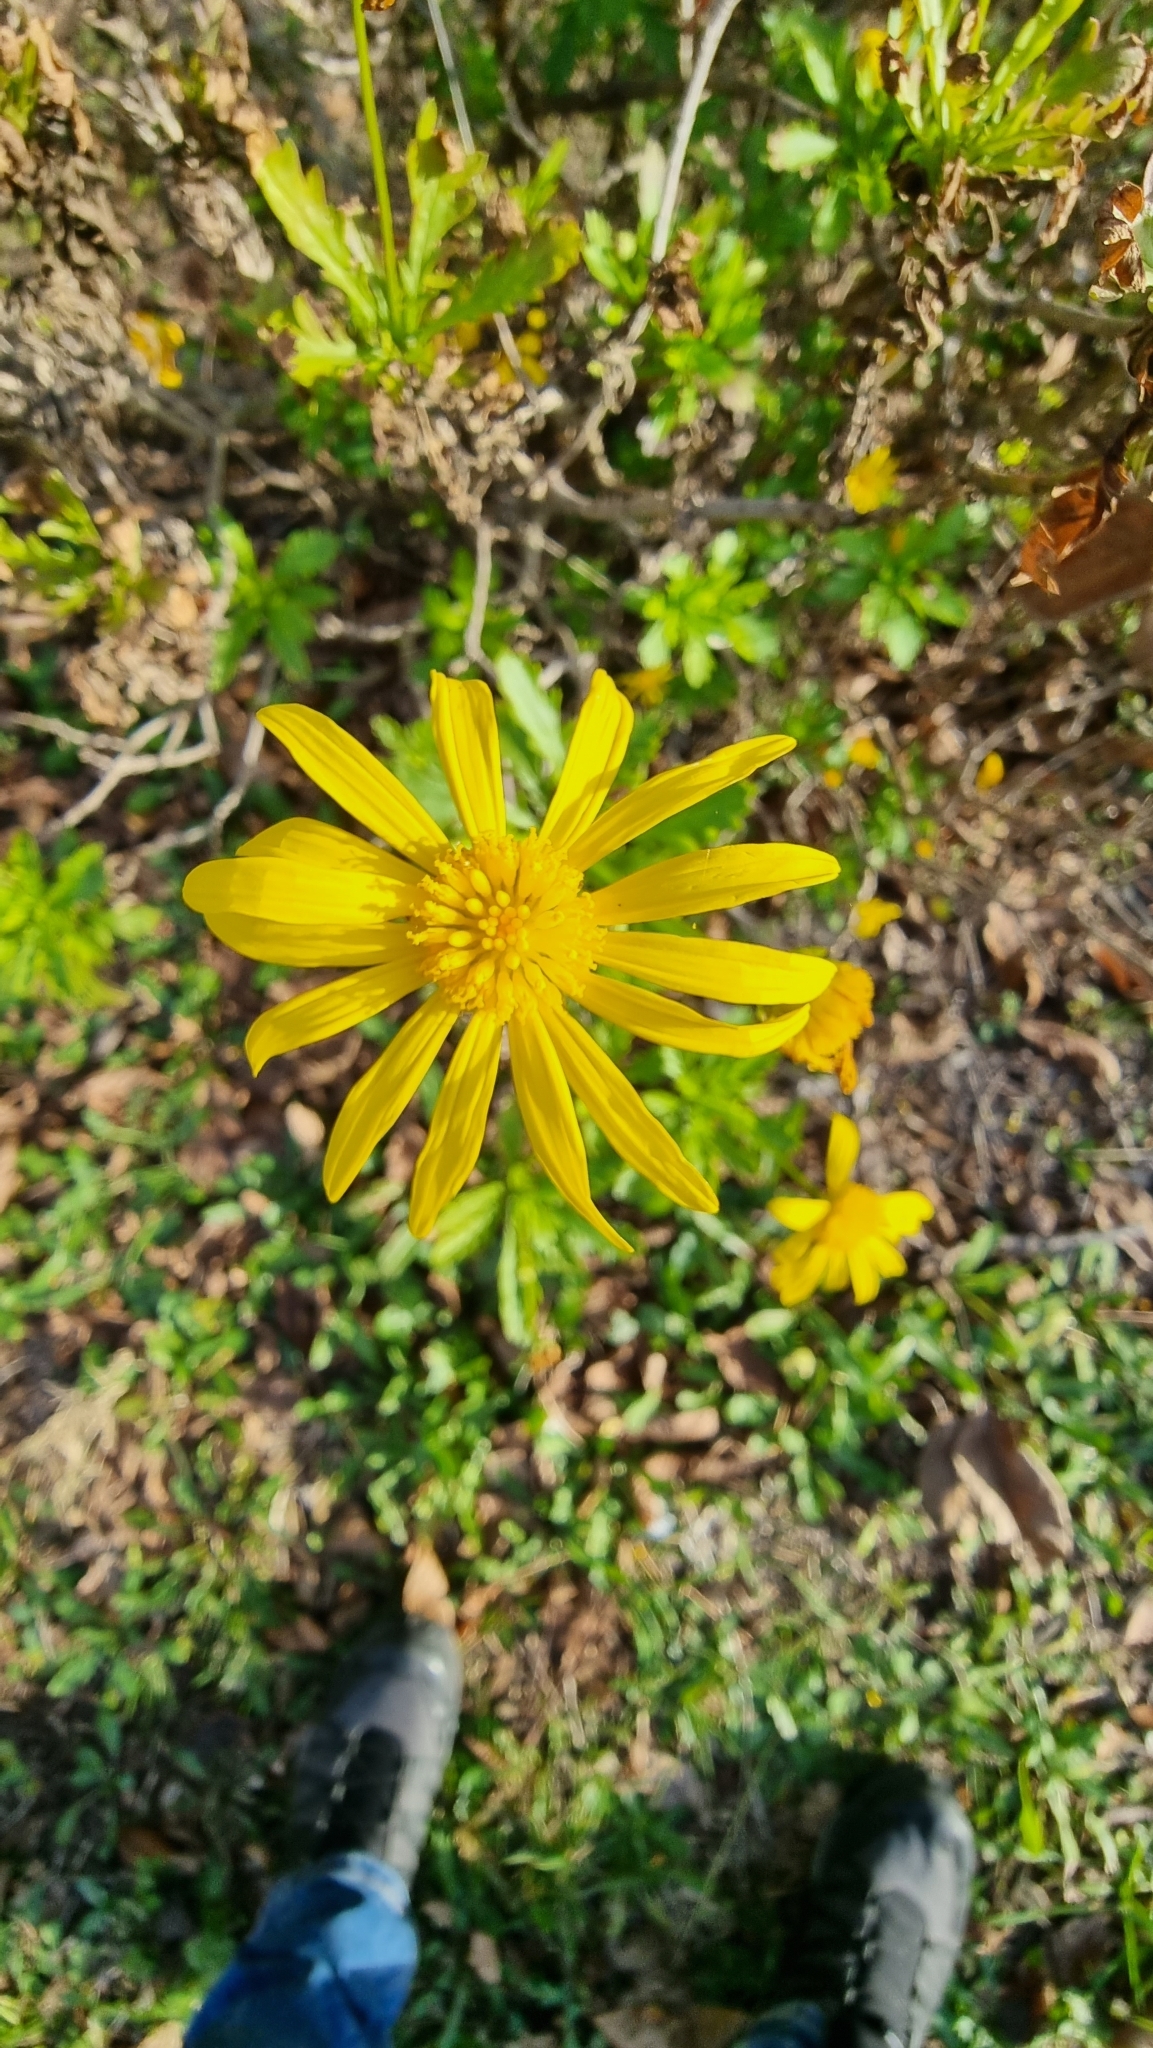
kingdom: Plantae
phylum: Tracheophyta
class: Magnoliopsida
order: Asterales
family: Asteraceae
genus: Euryops
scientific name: Euryops chrysanthemoides
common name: Bull's eye
